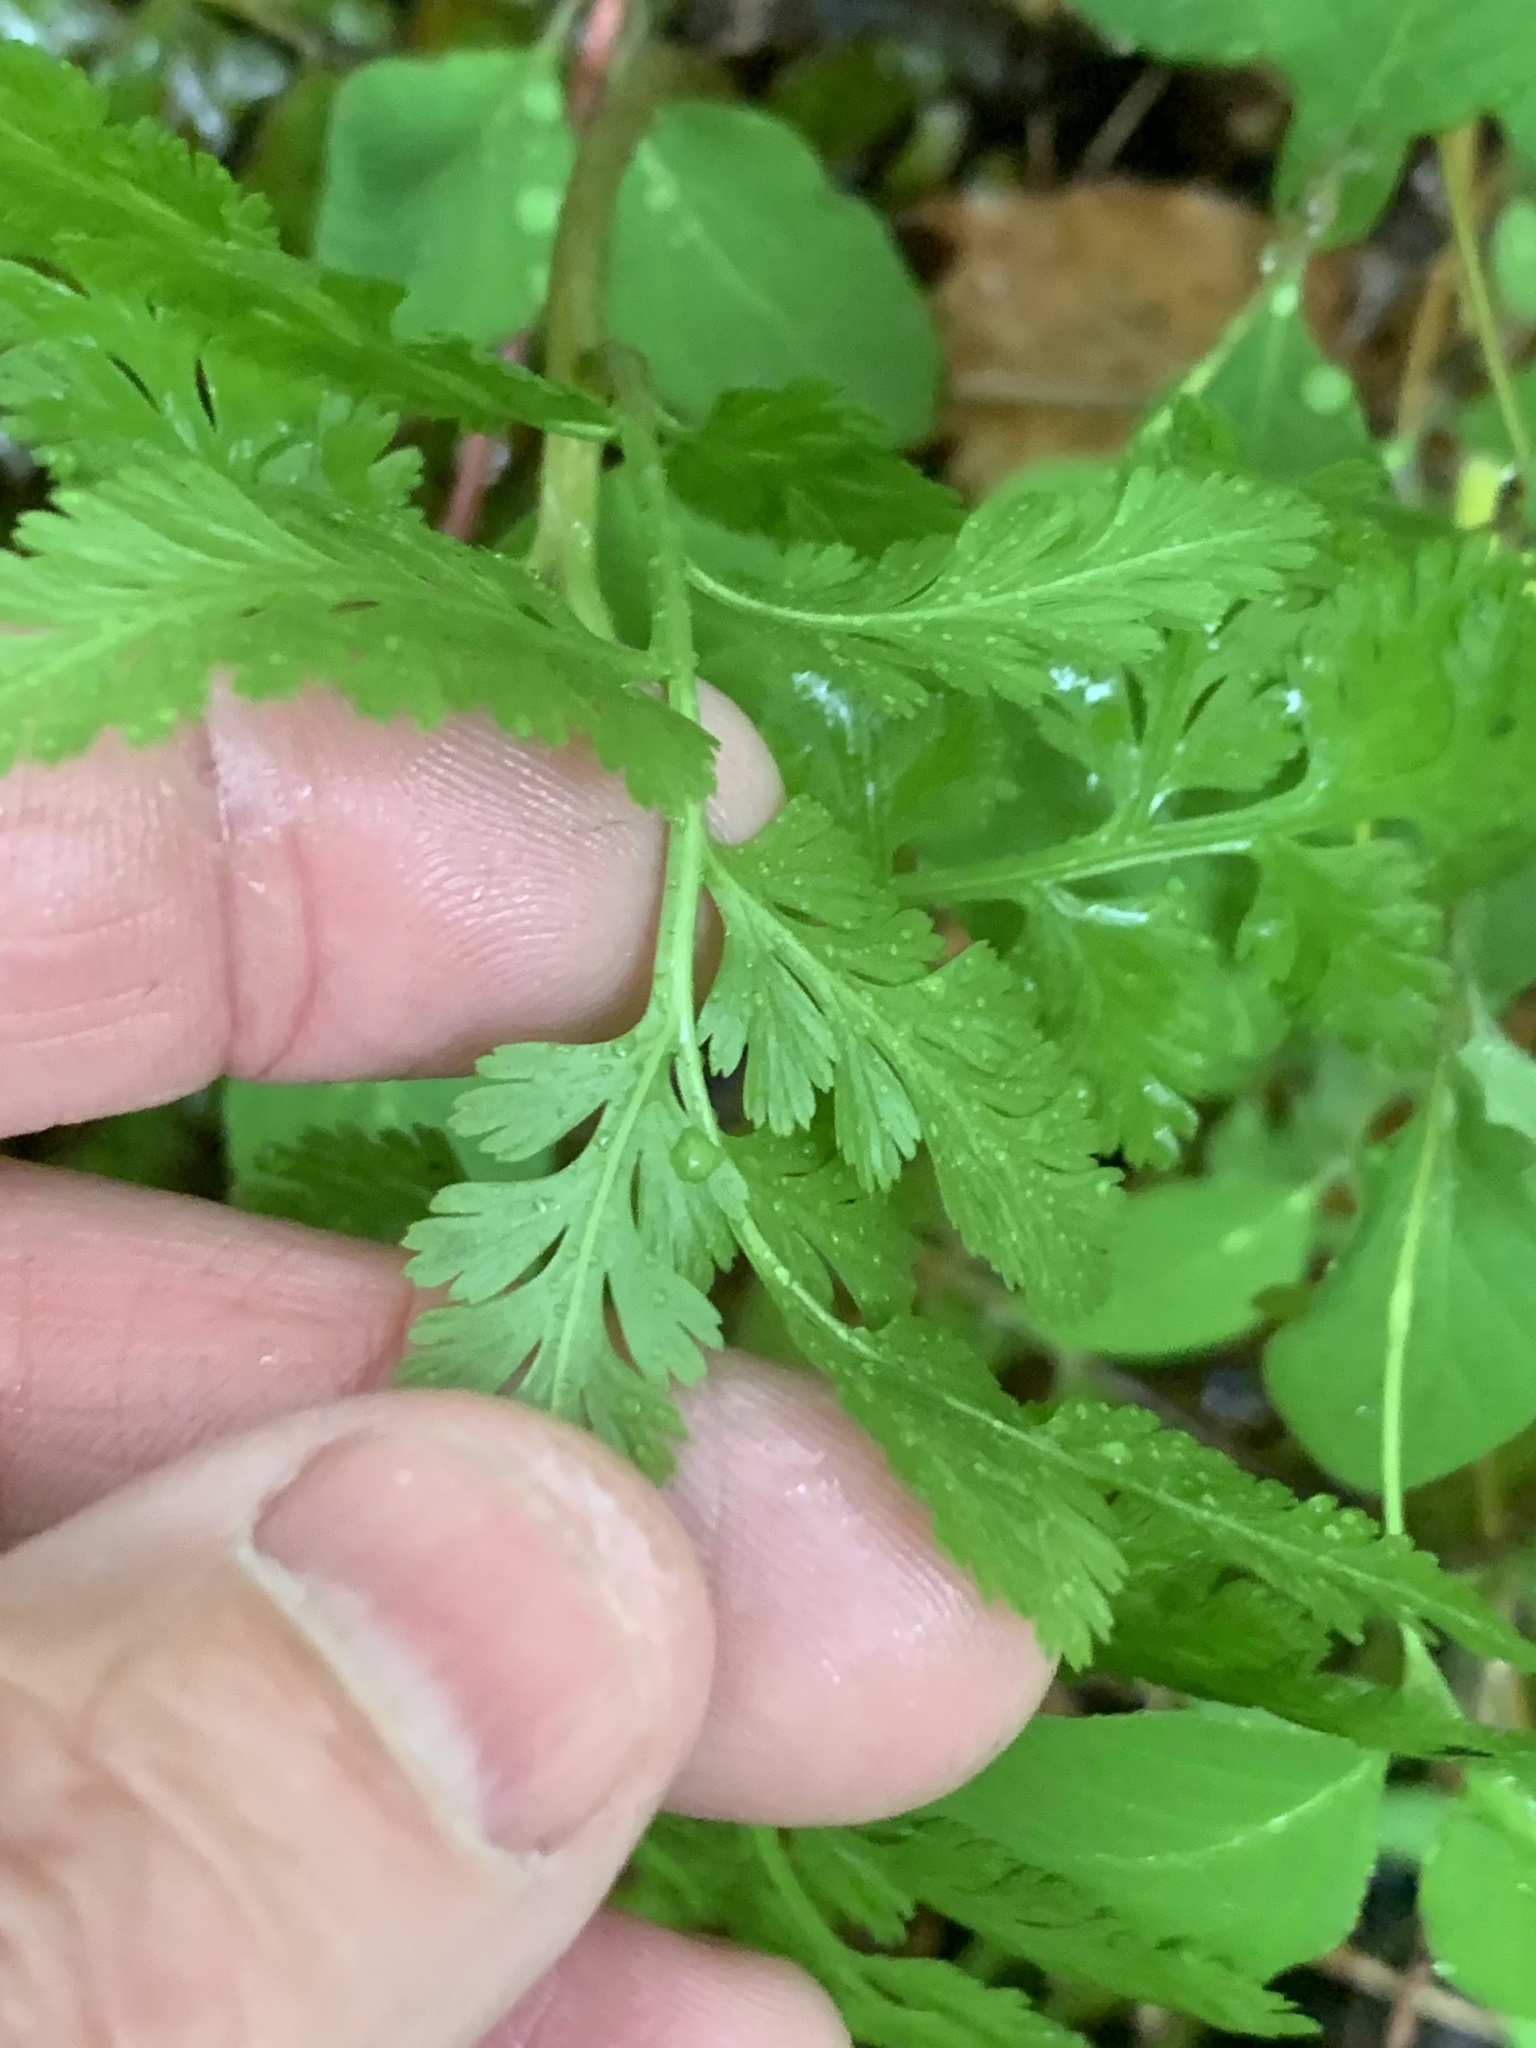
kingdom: Plantae
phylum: Tracheophyta
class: Polypodiopsida
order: Ophioglossales
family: Ophioglossaceae
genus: Botrypus
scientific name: Botrypus virginianus
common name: Common grapefern
